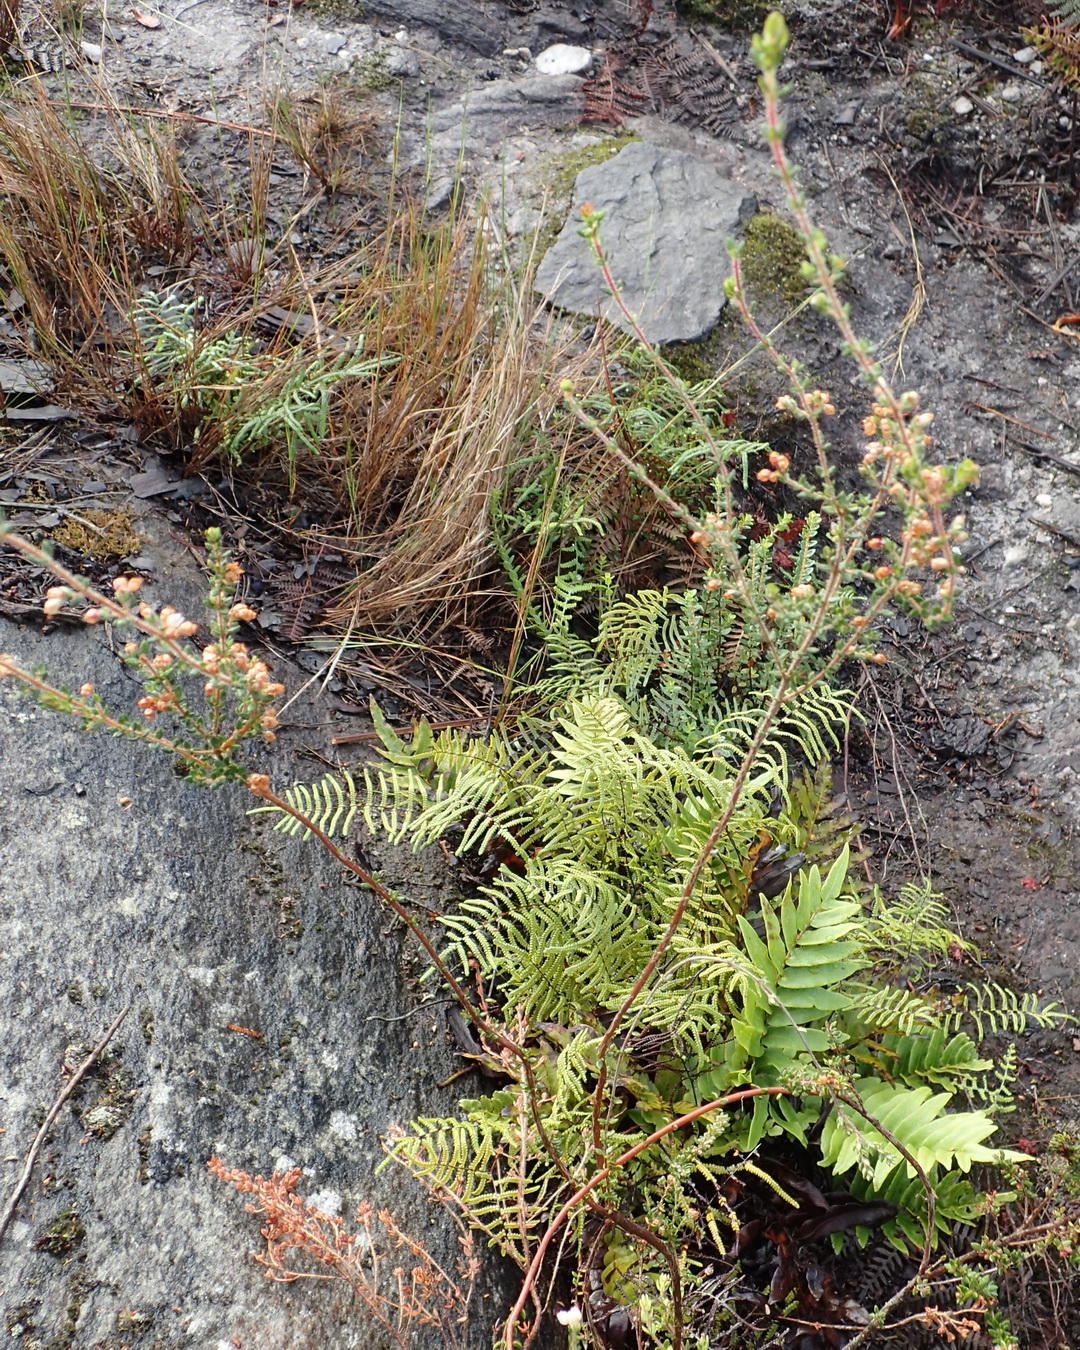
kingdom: Plantae
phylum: Tracheophyta
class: Magnoliopsida
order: Ericales
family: Ericaceae
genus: Erica
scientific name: Erica cordata
